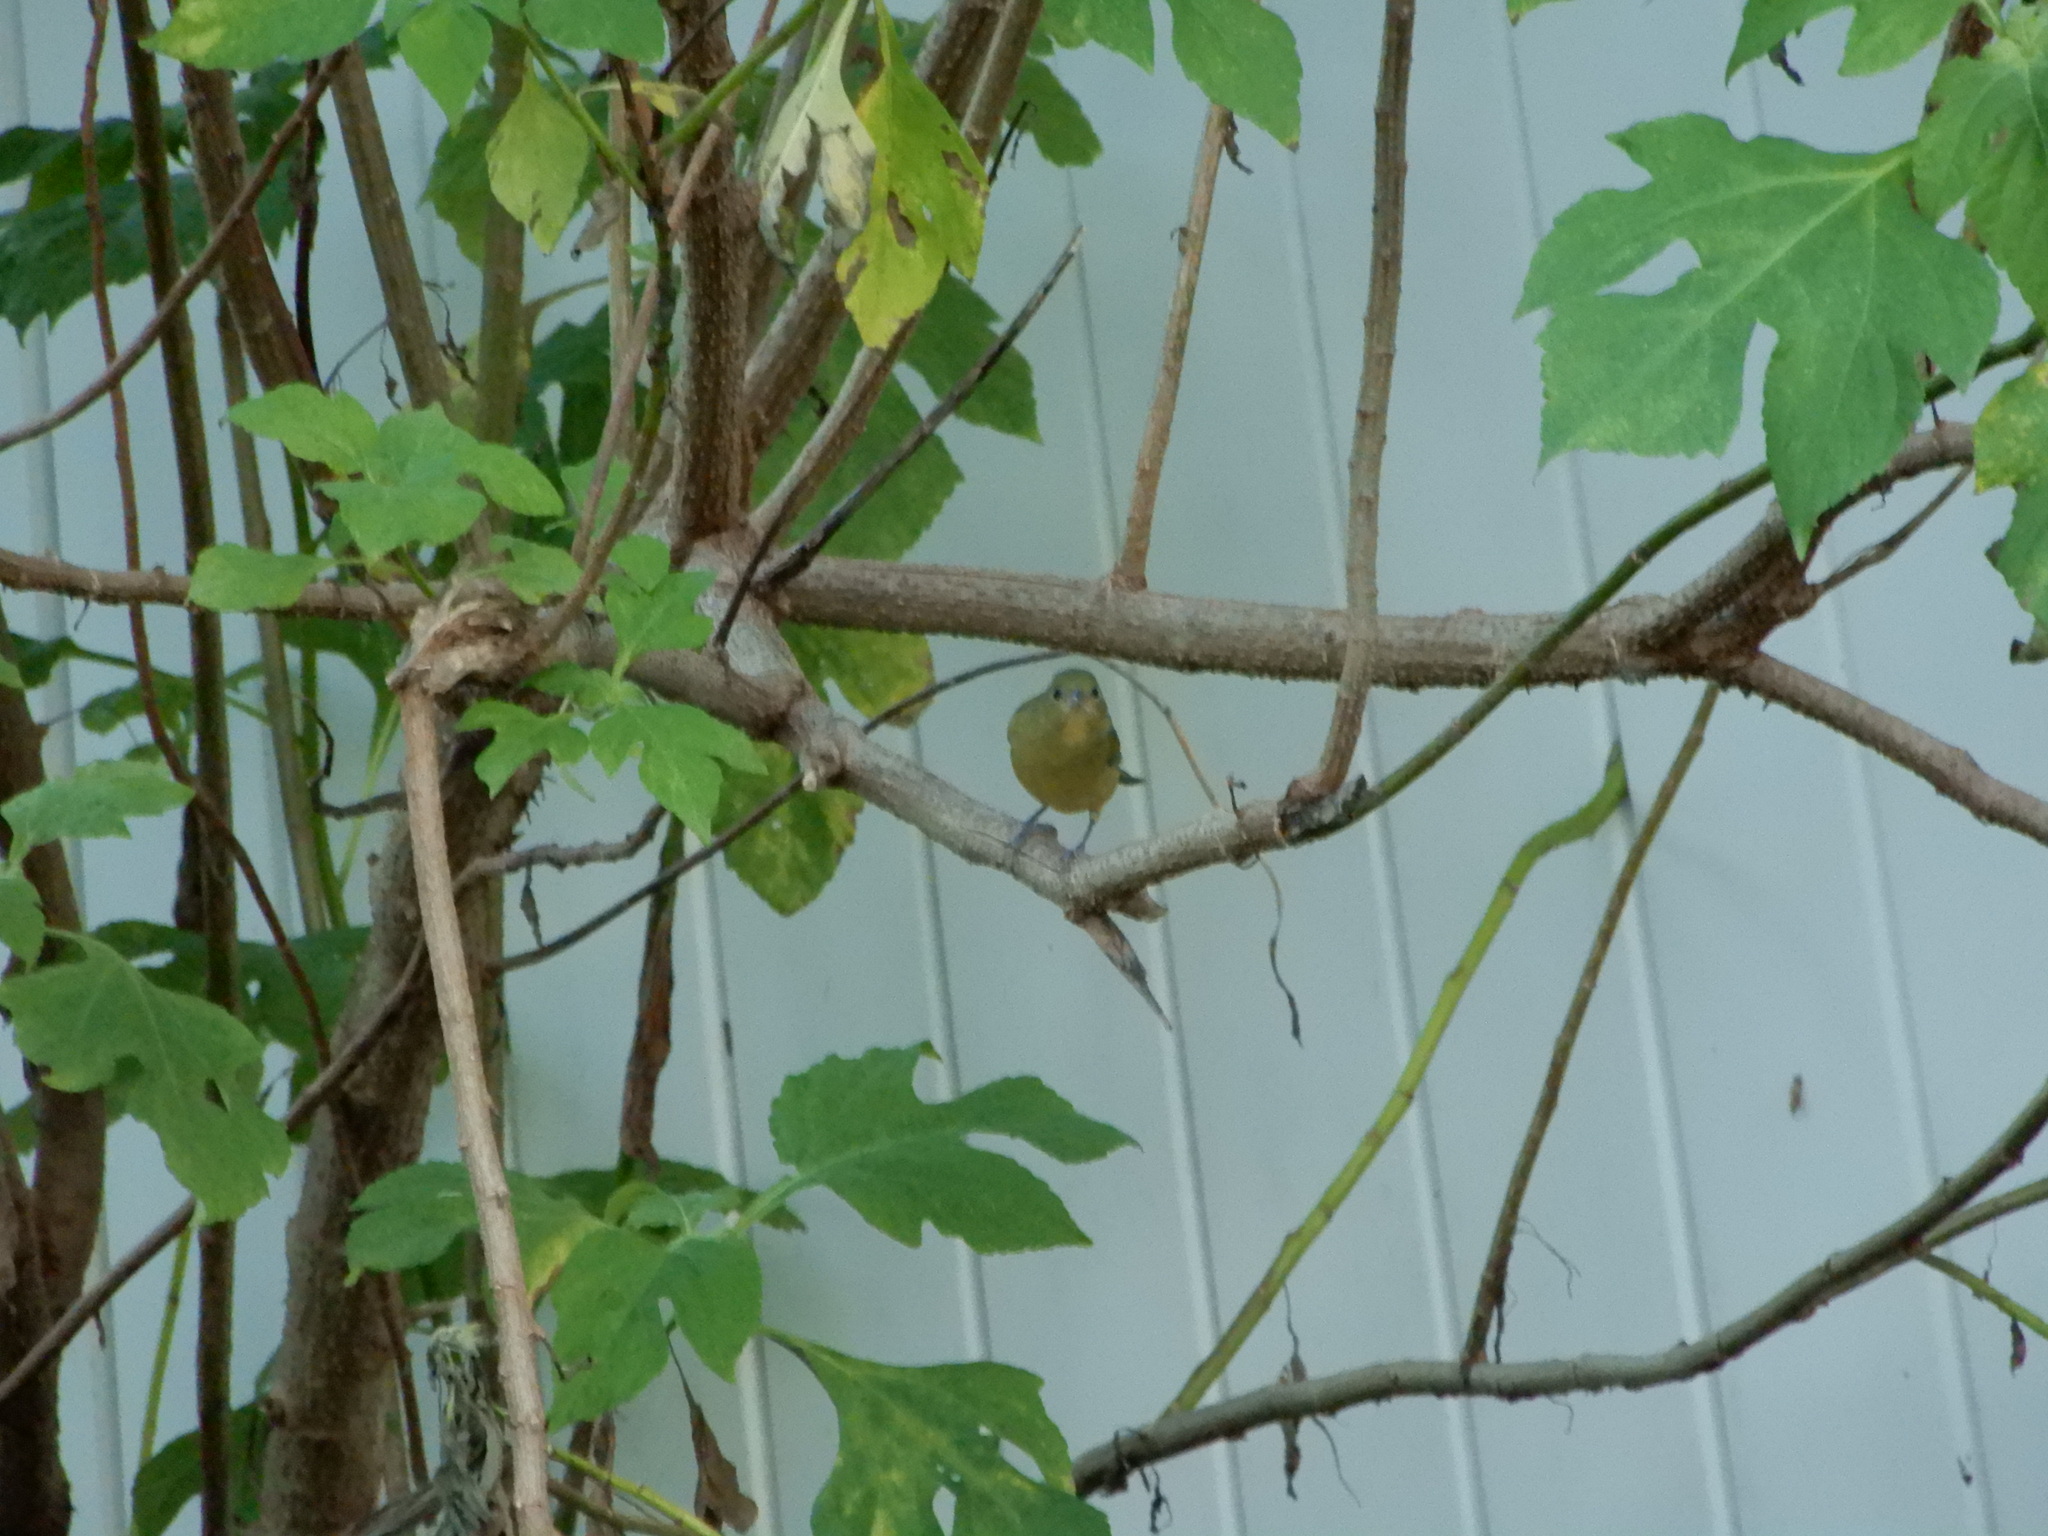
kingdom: Animalia
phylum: Chordata
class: Aves
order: Passeriformes
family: Cardinalidae
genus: Passerina
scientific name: Passerina ciris
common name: Painted bunting
